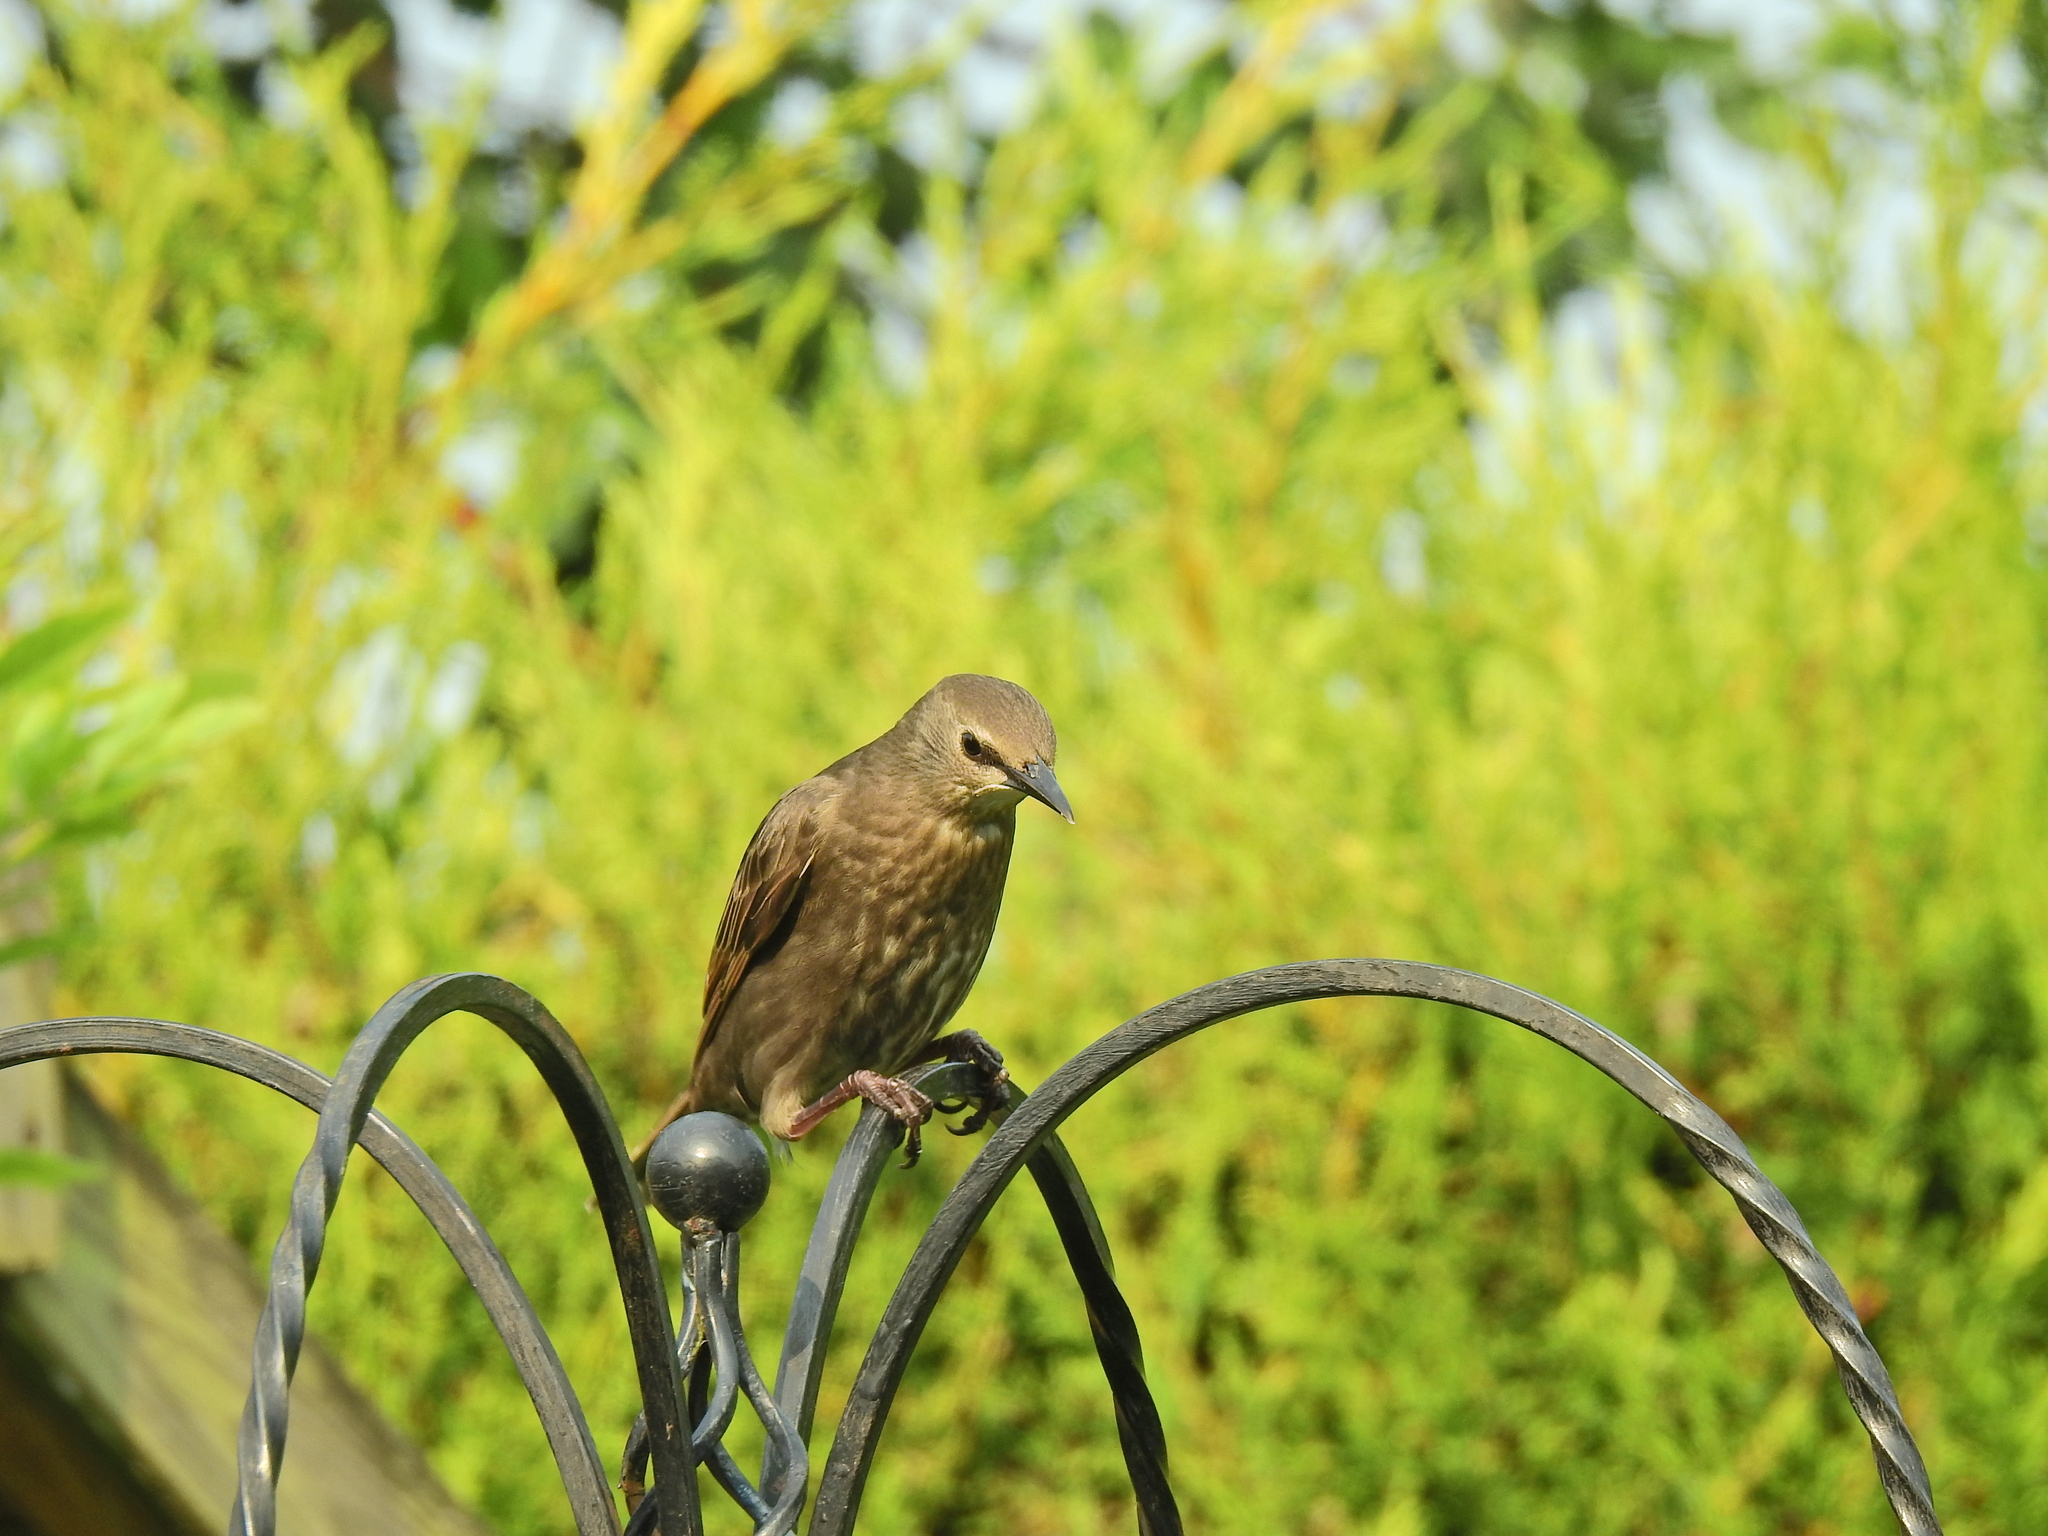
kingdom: Animalia
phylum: Chordata
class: Aves
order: Passeriformes
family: Sturnidae
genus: Sturnus
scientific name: Sturnus vulgaris
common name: Common starling
